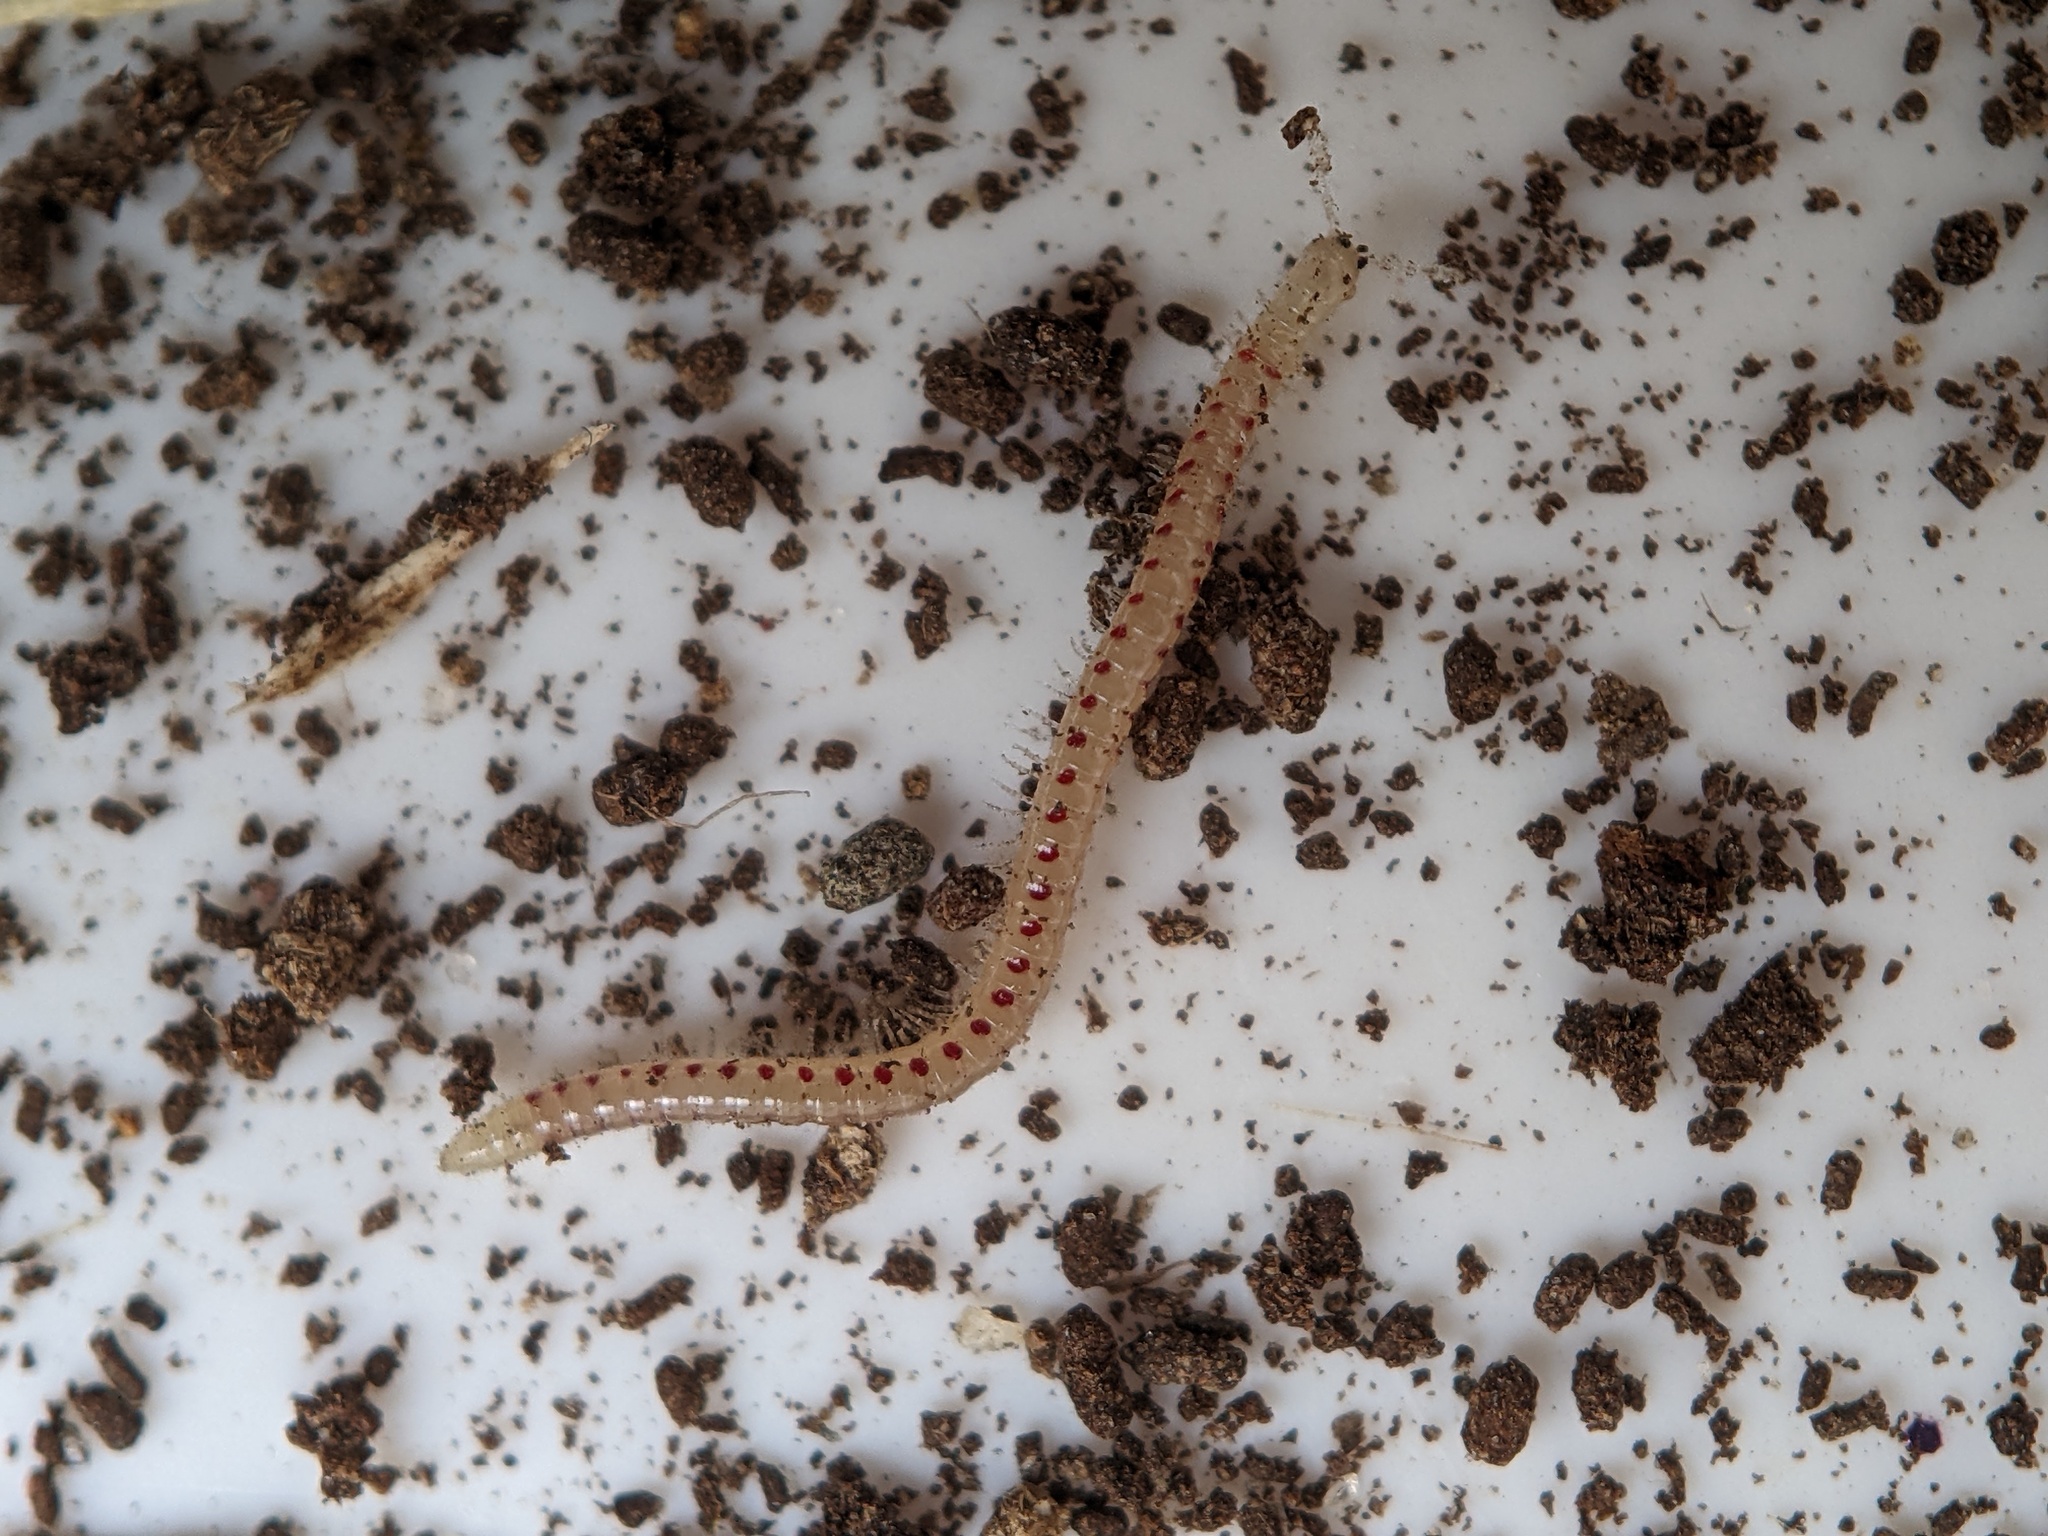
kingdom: Animalia
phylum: Arthropoda
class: Diplopoda
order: Julida
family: Blaniulidae
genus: Blaniulus
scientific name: Blaniulus guttulatus
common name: Spotted snake millipede
